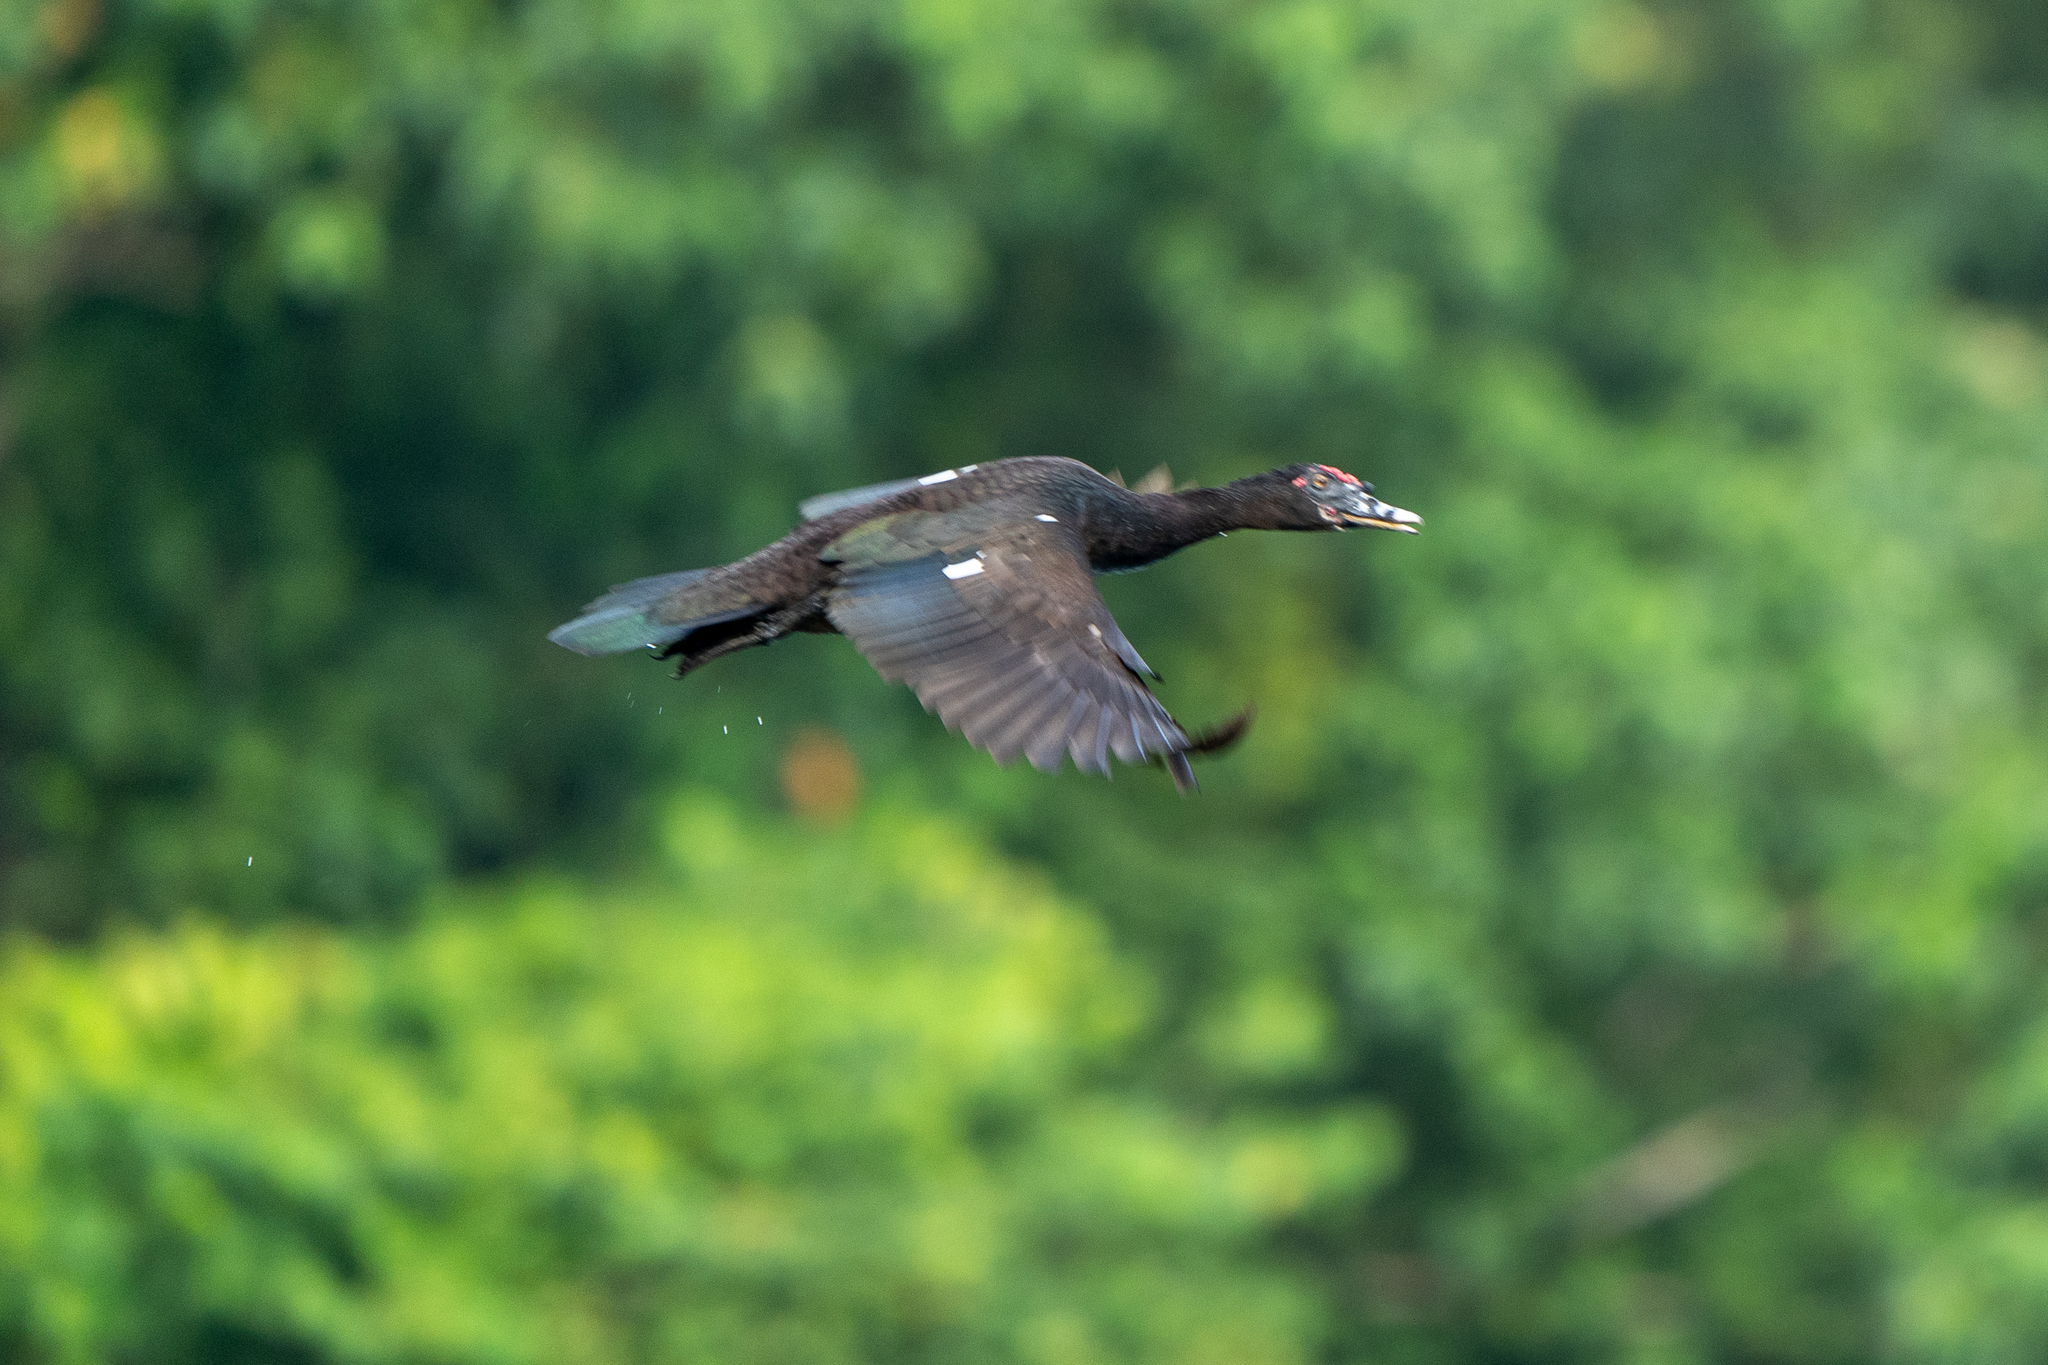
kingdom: Animalia
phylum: Chordata
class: Aves
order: Anseriformes
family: Anatidae
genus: Cairina
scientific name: Cairina moschata
